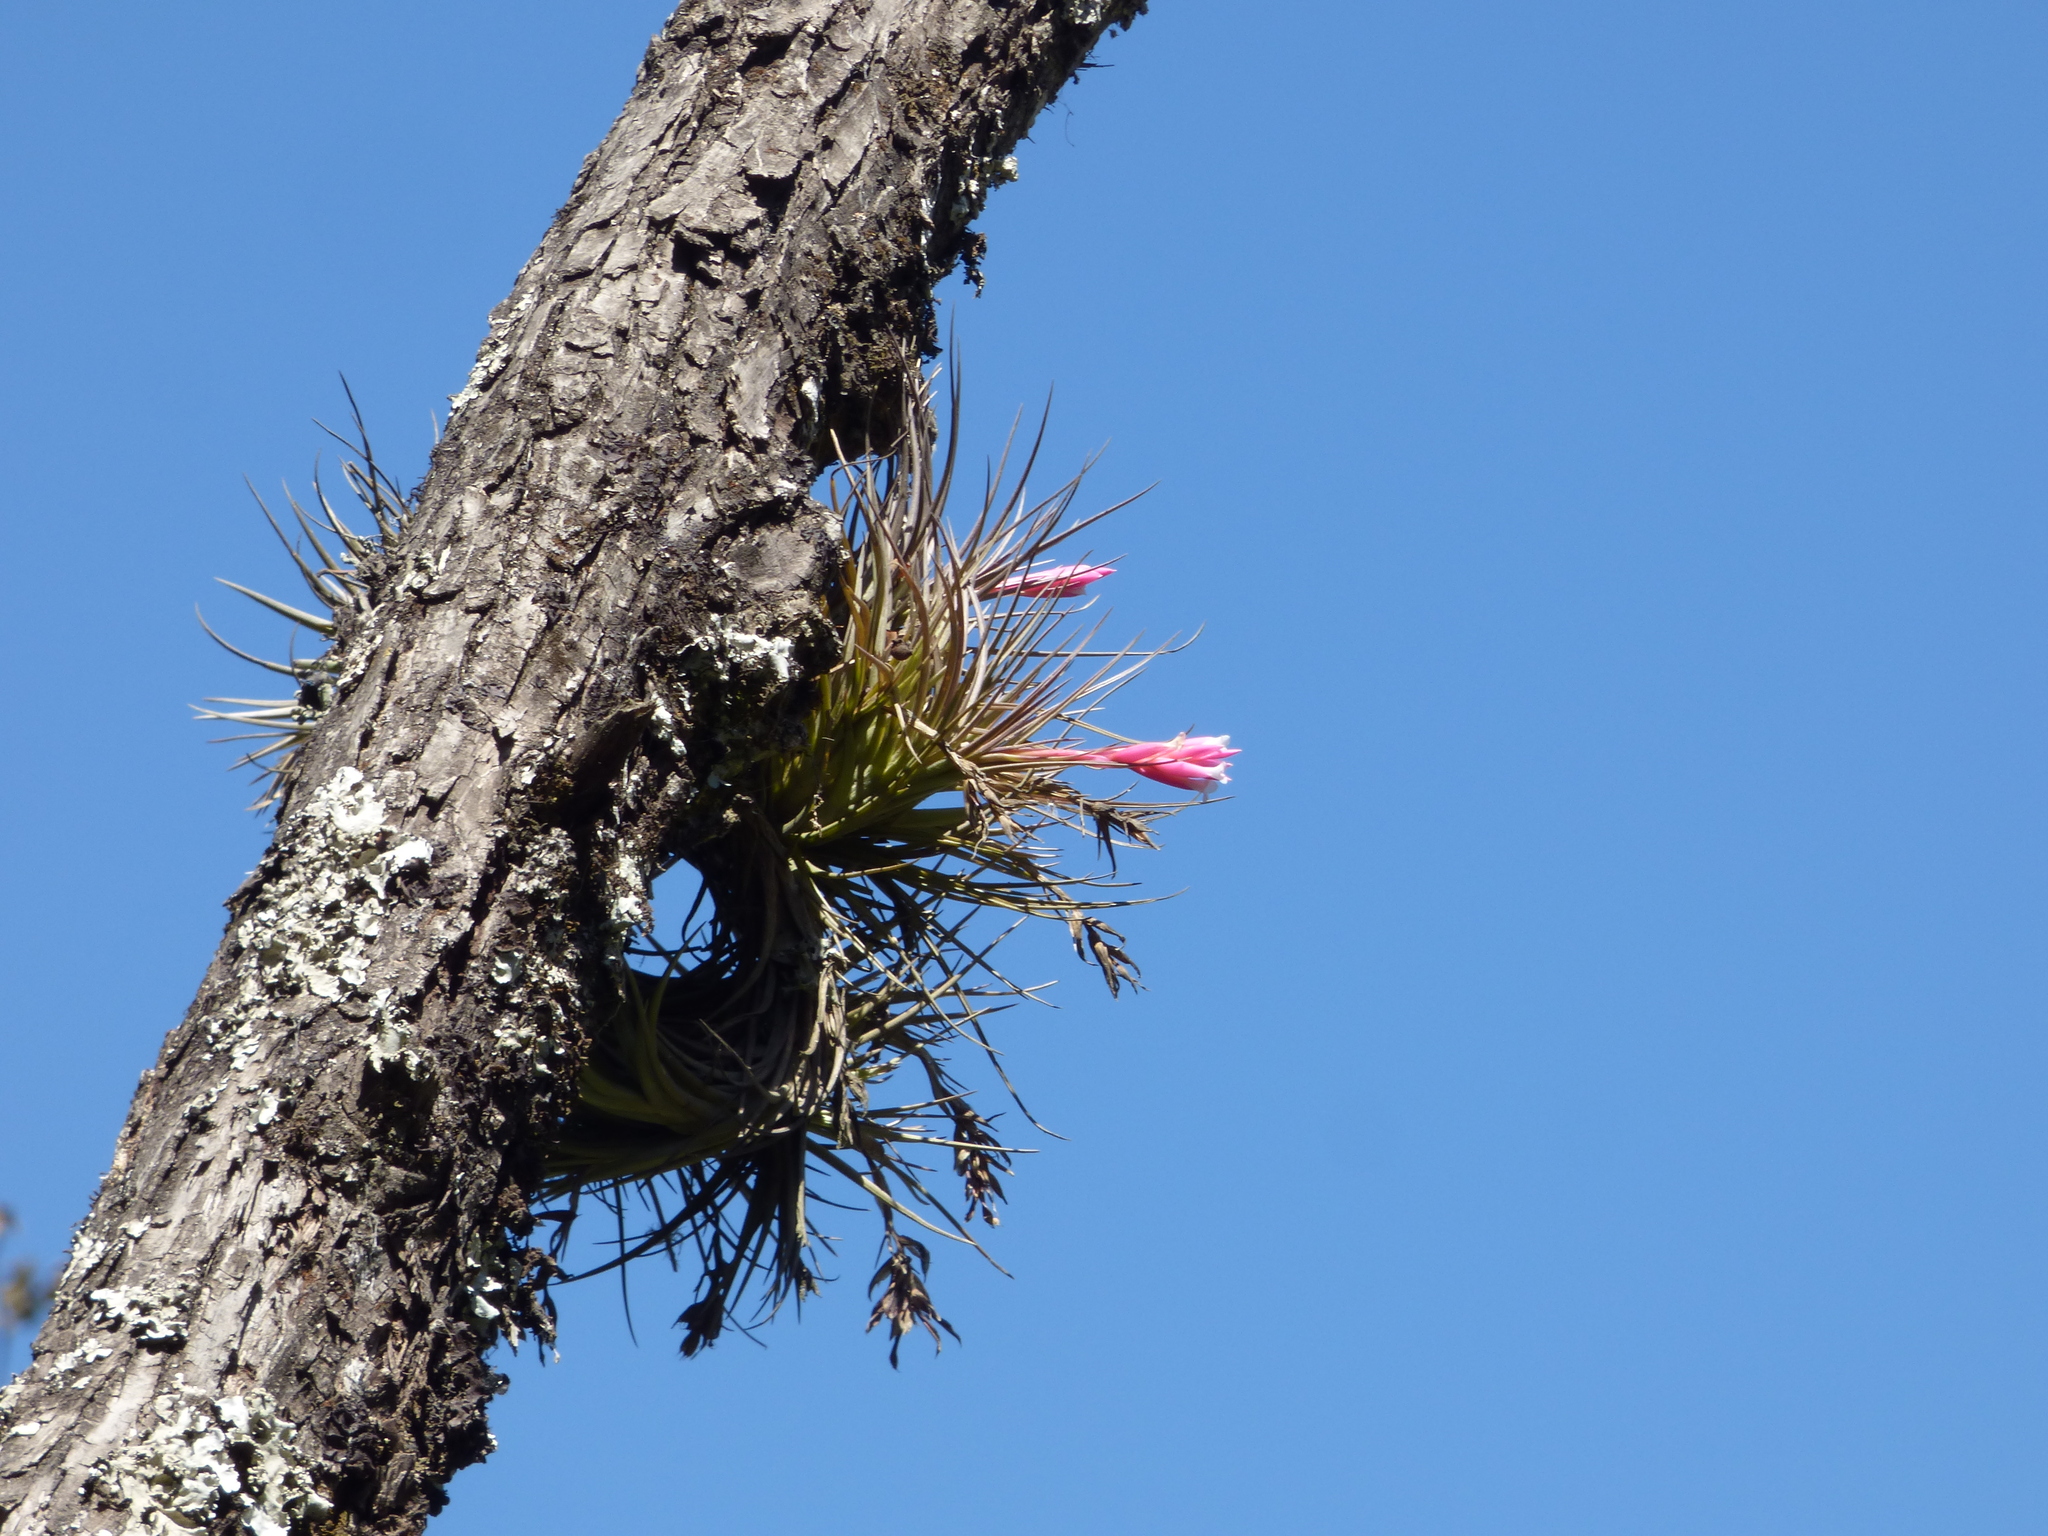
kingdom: Plantae
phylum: Tracheophyta
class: Liliopsida
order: Poales
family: Bromeliaceae
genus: Tillandsia
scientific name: Tillandsia tenuifolia
